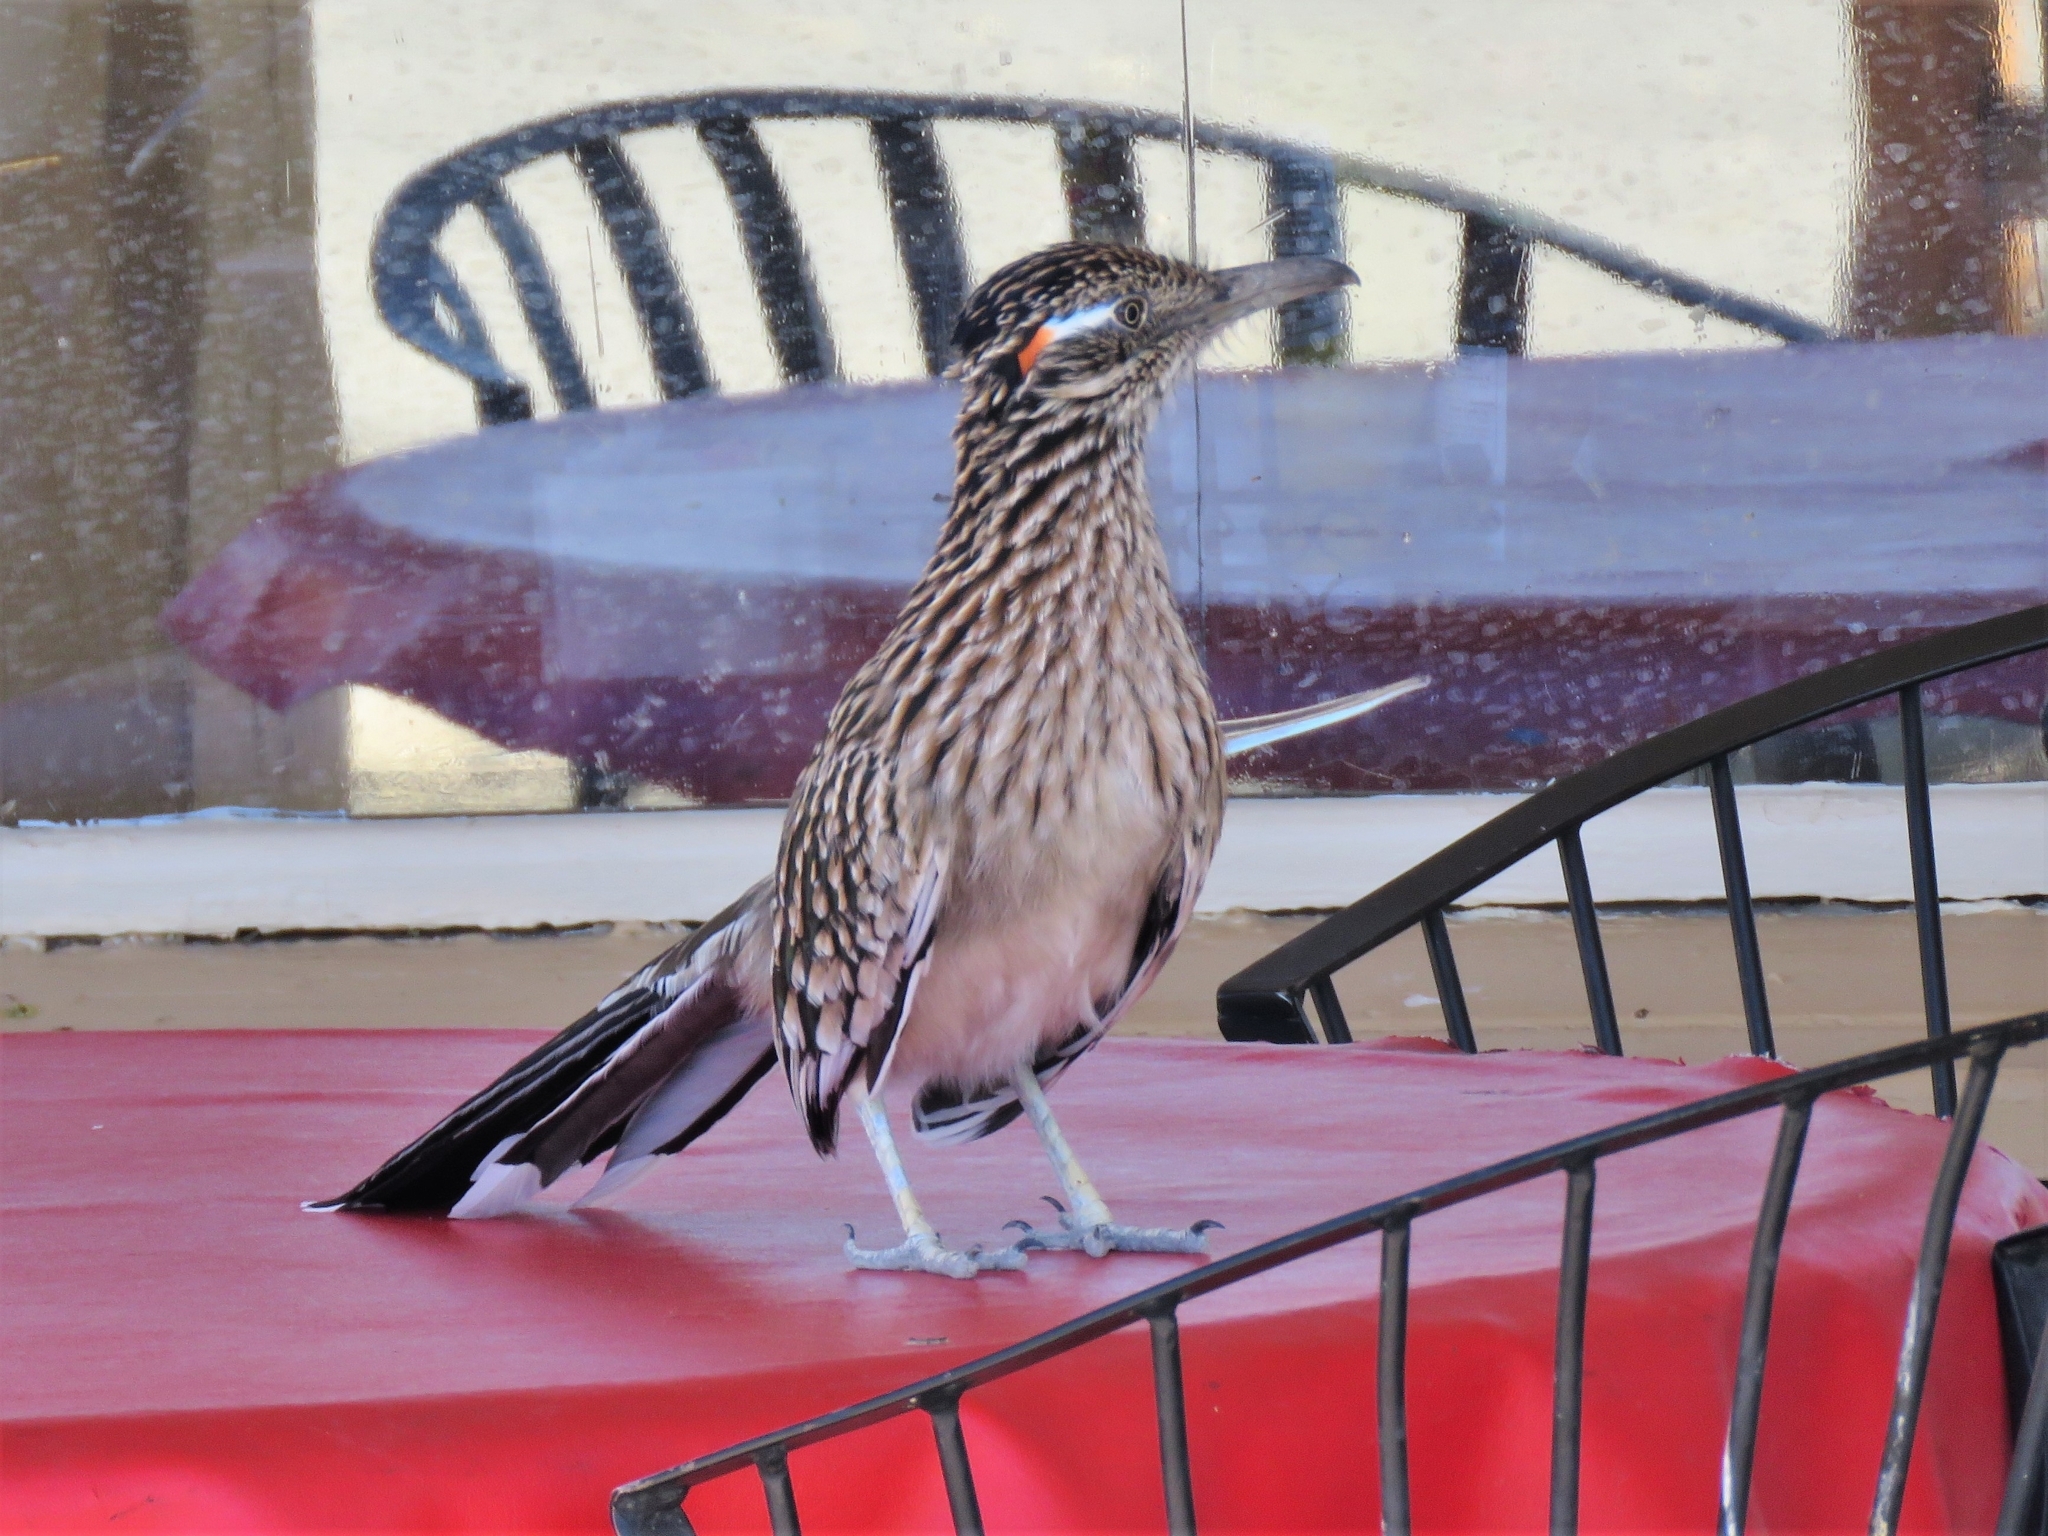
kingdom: Animalia
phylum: Chordata
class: Aves
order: Cuculiformes
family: Cuculidae
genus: Geococcyx
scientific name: Geococcyx californianus
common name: Greater roadrunner
